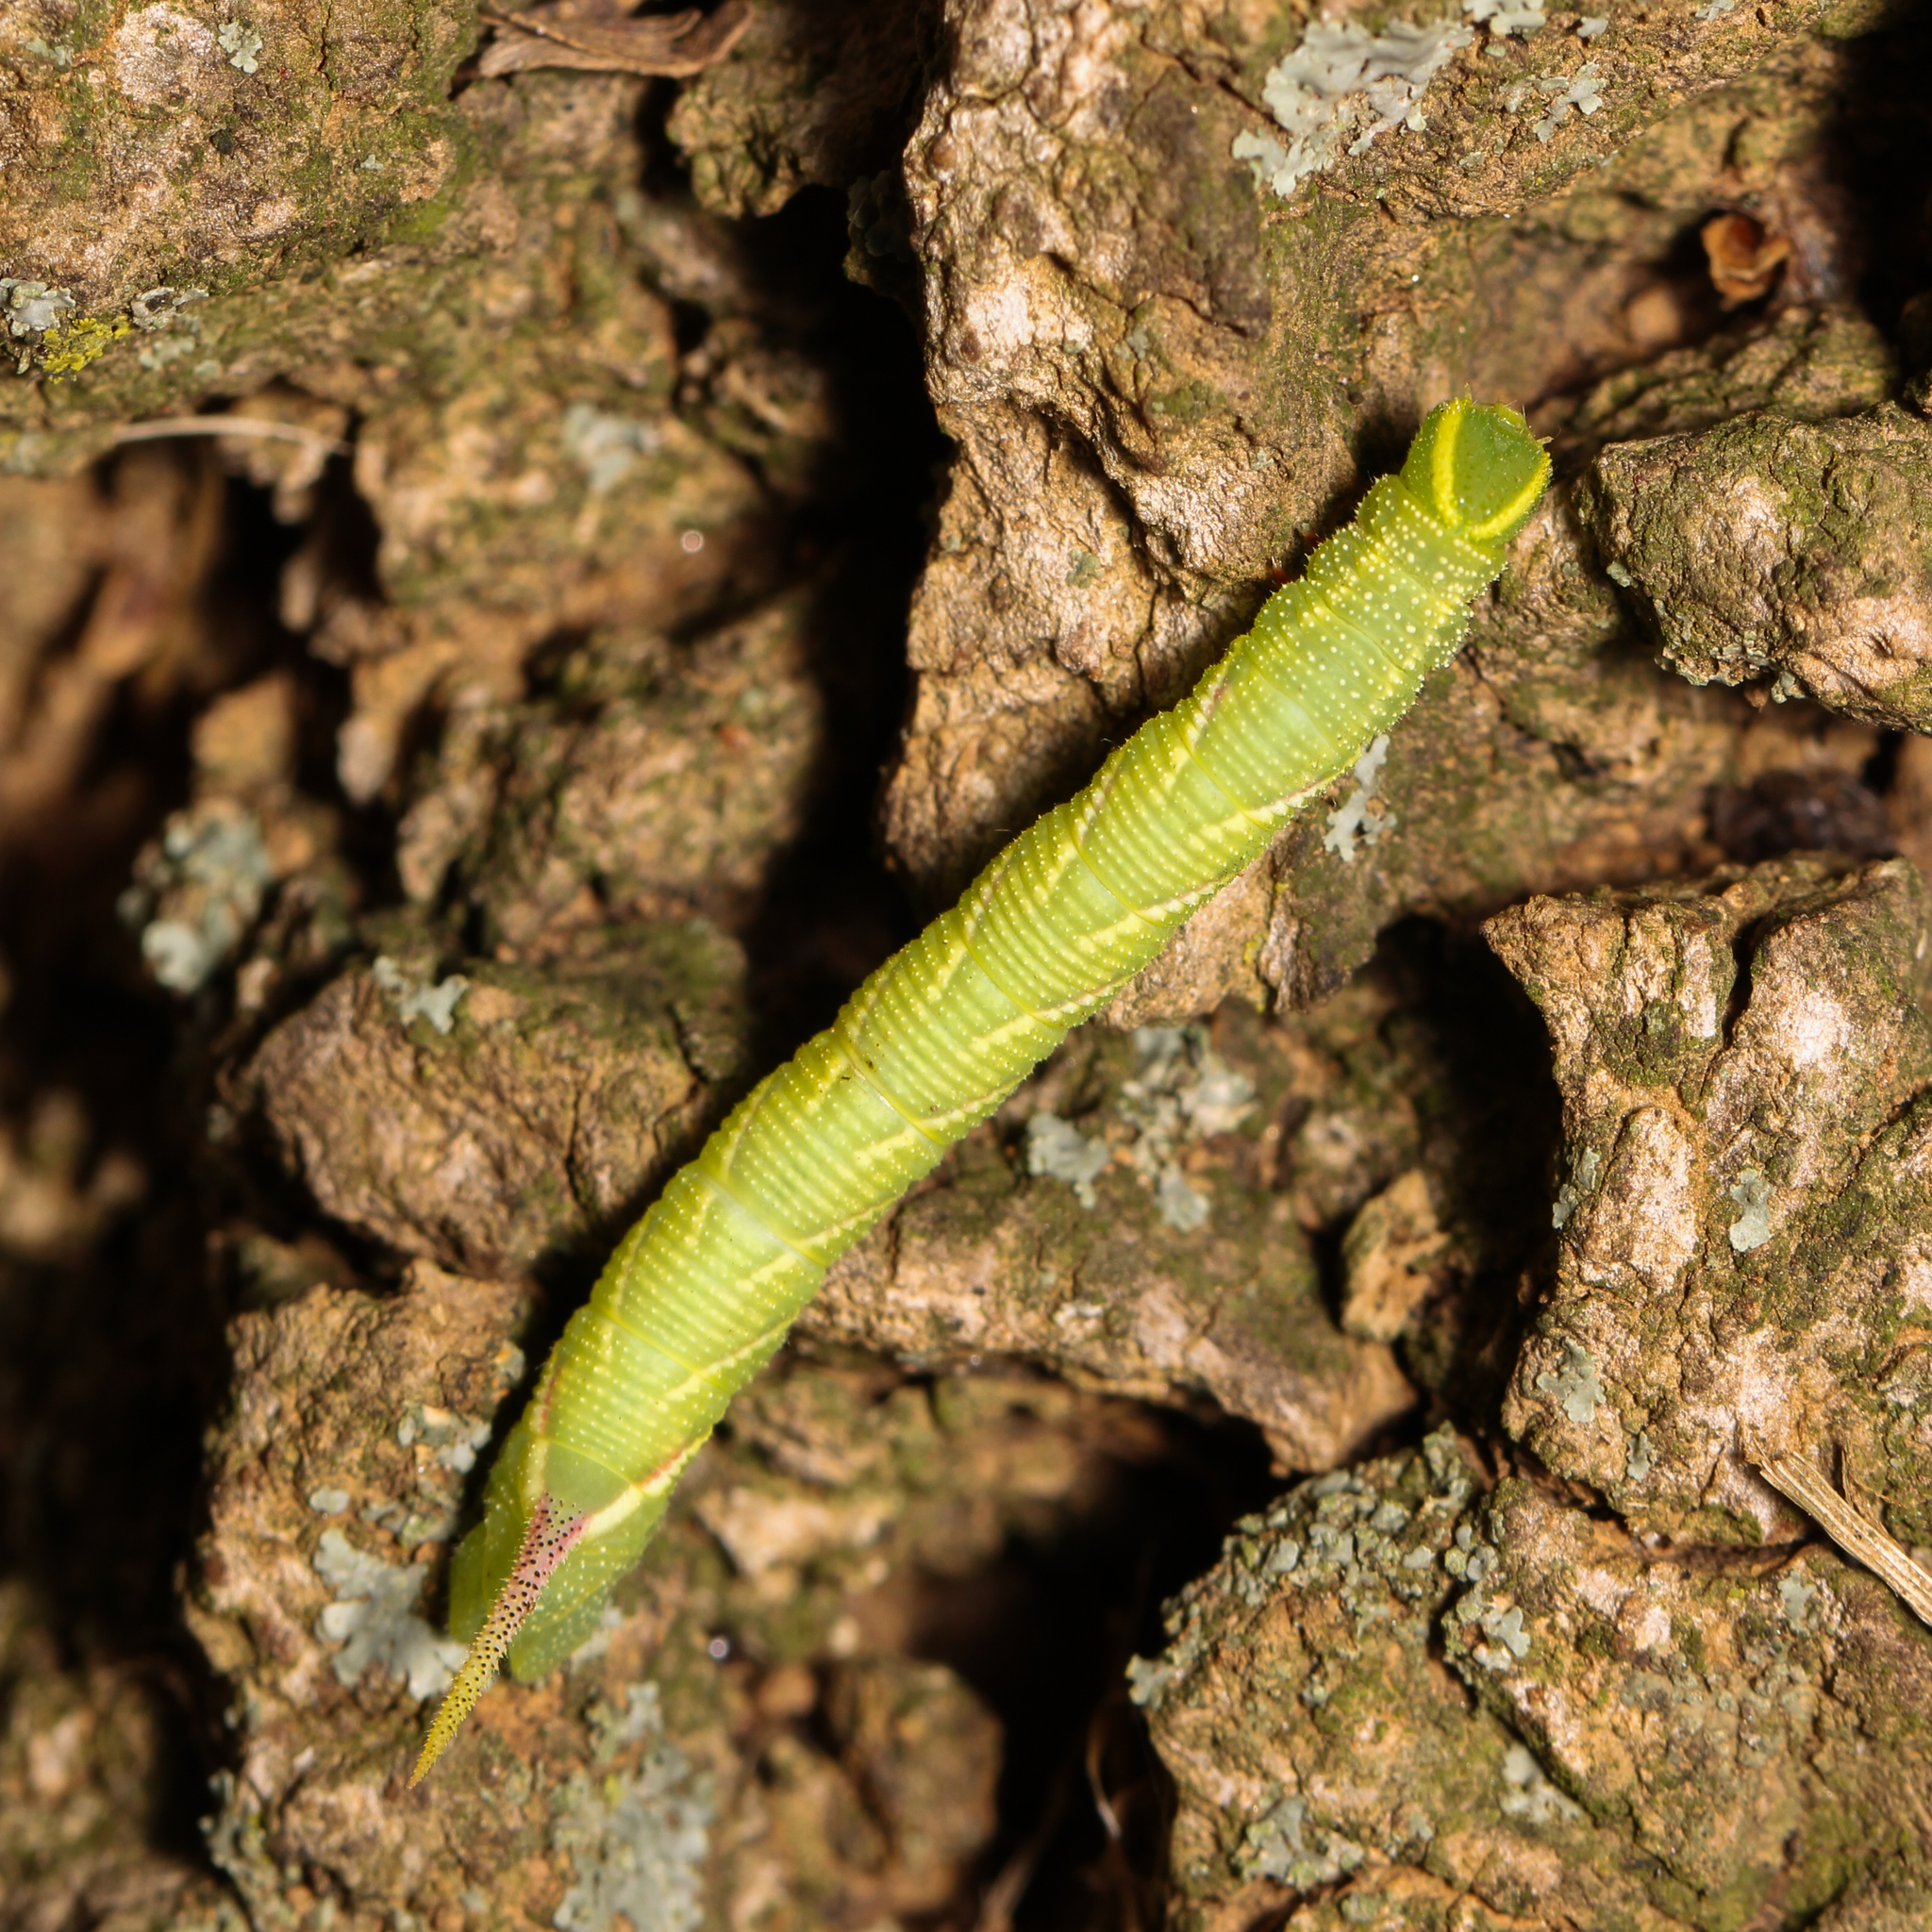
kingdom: Animalia
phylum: Arthropoda
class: Insecta
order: Lepidoptera
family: Sphingidae
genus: Ceratomia
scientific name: Ceratomia undulosa
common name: Waved sphinx
